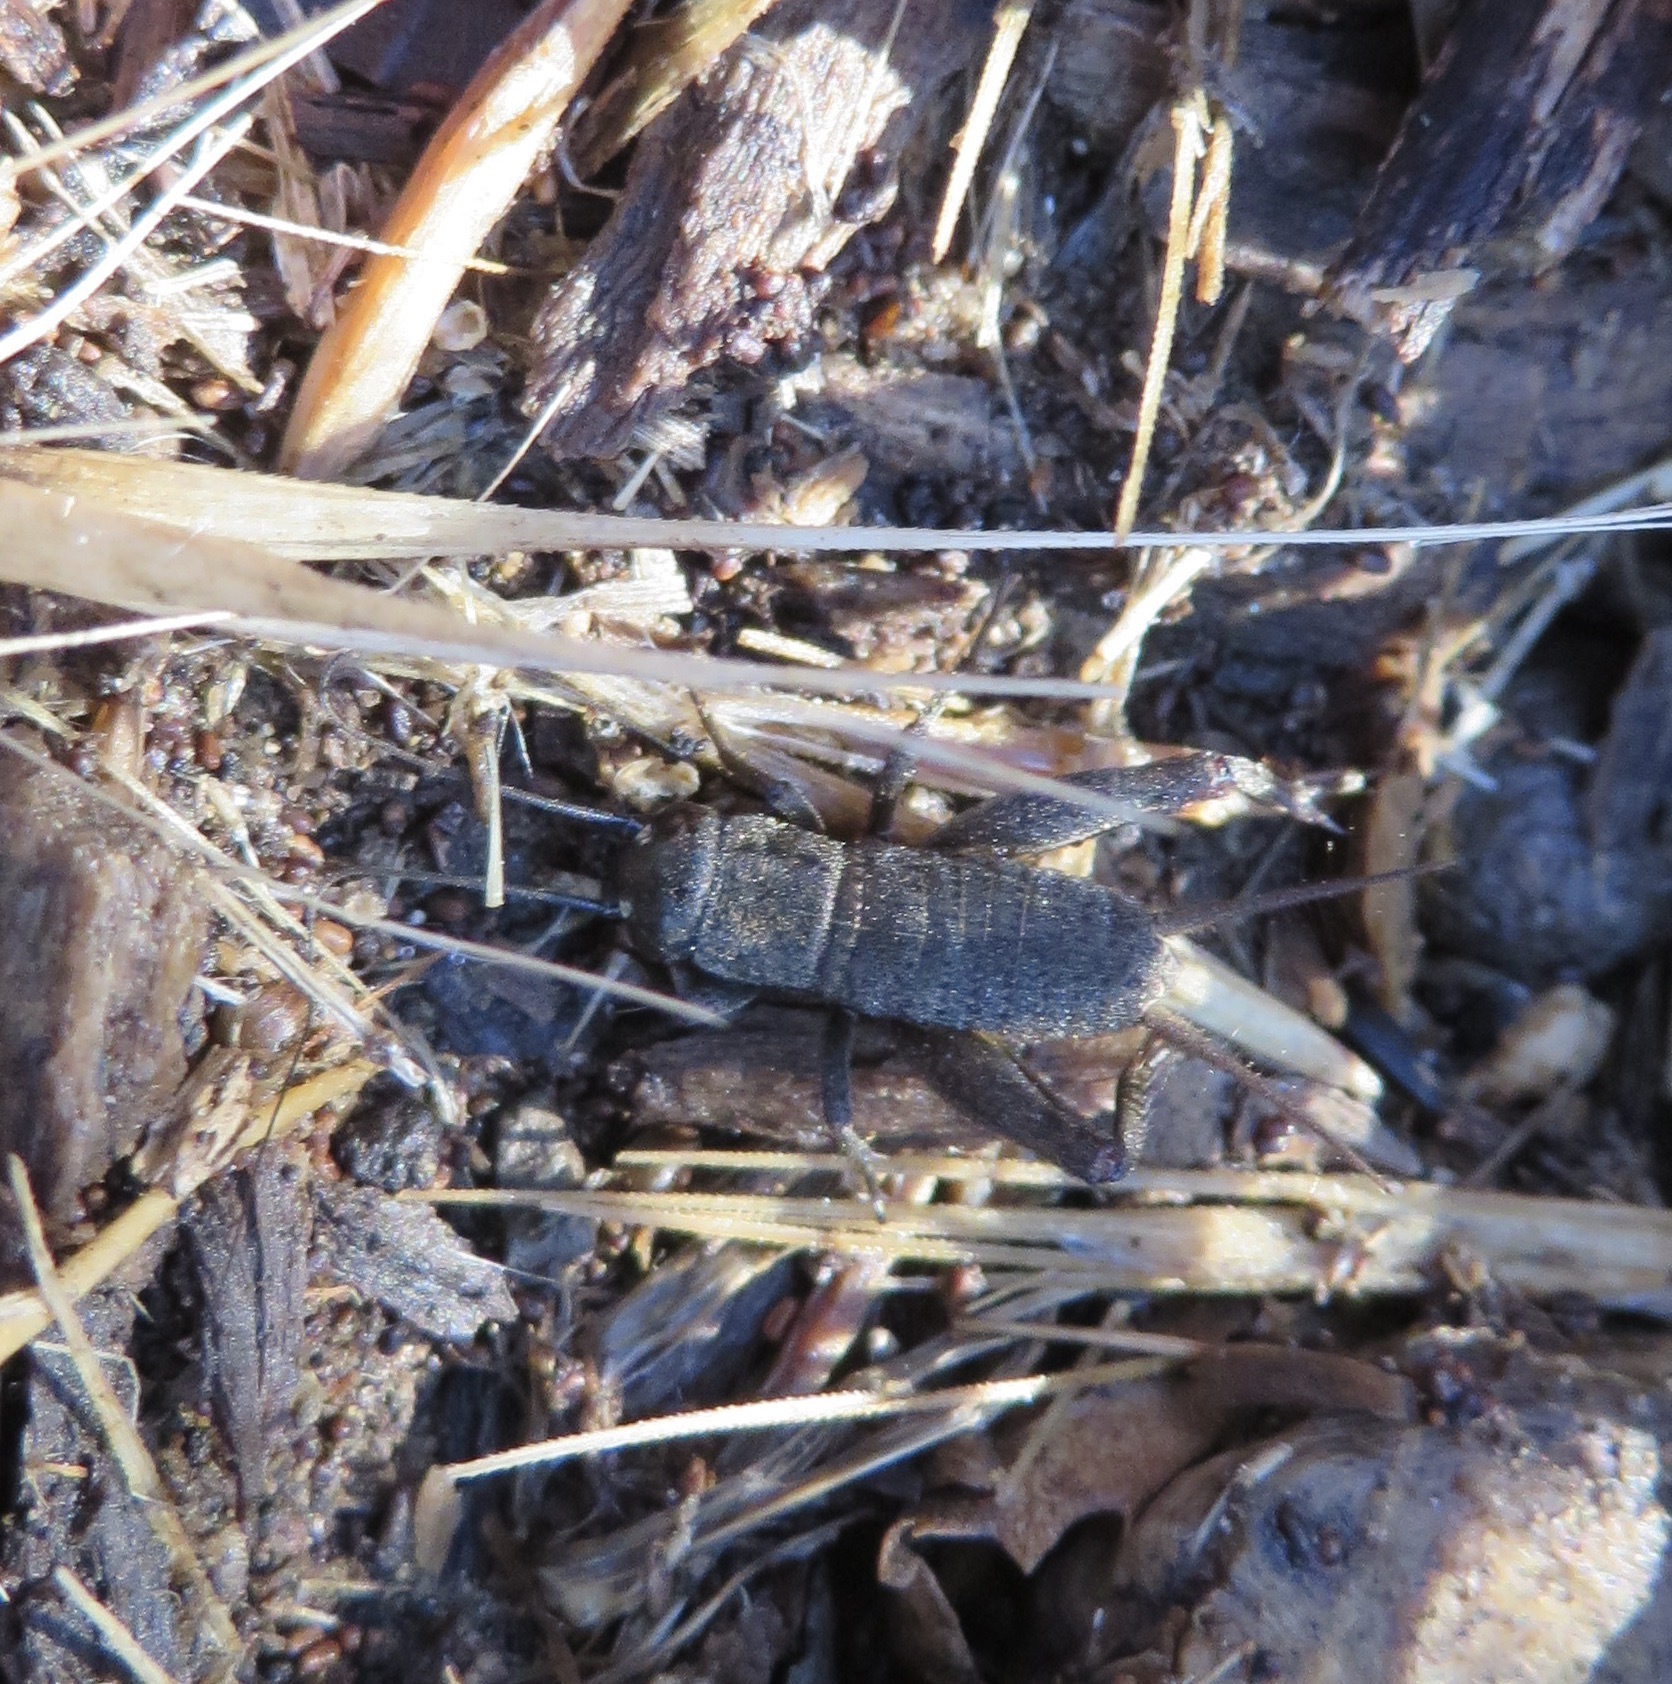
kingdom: Animalia
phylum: Arthropoda
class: Insecta
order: Orthoptera
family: Gryllidae
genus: Gryllus
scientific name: Gryllus
